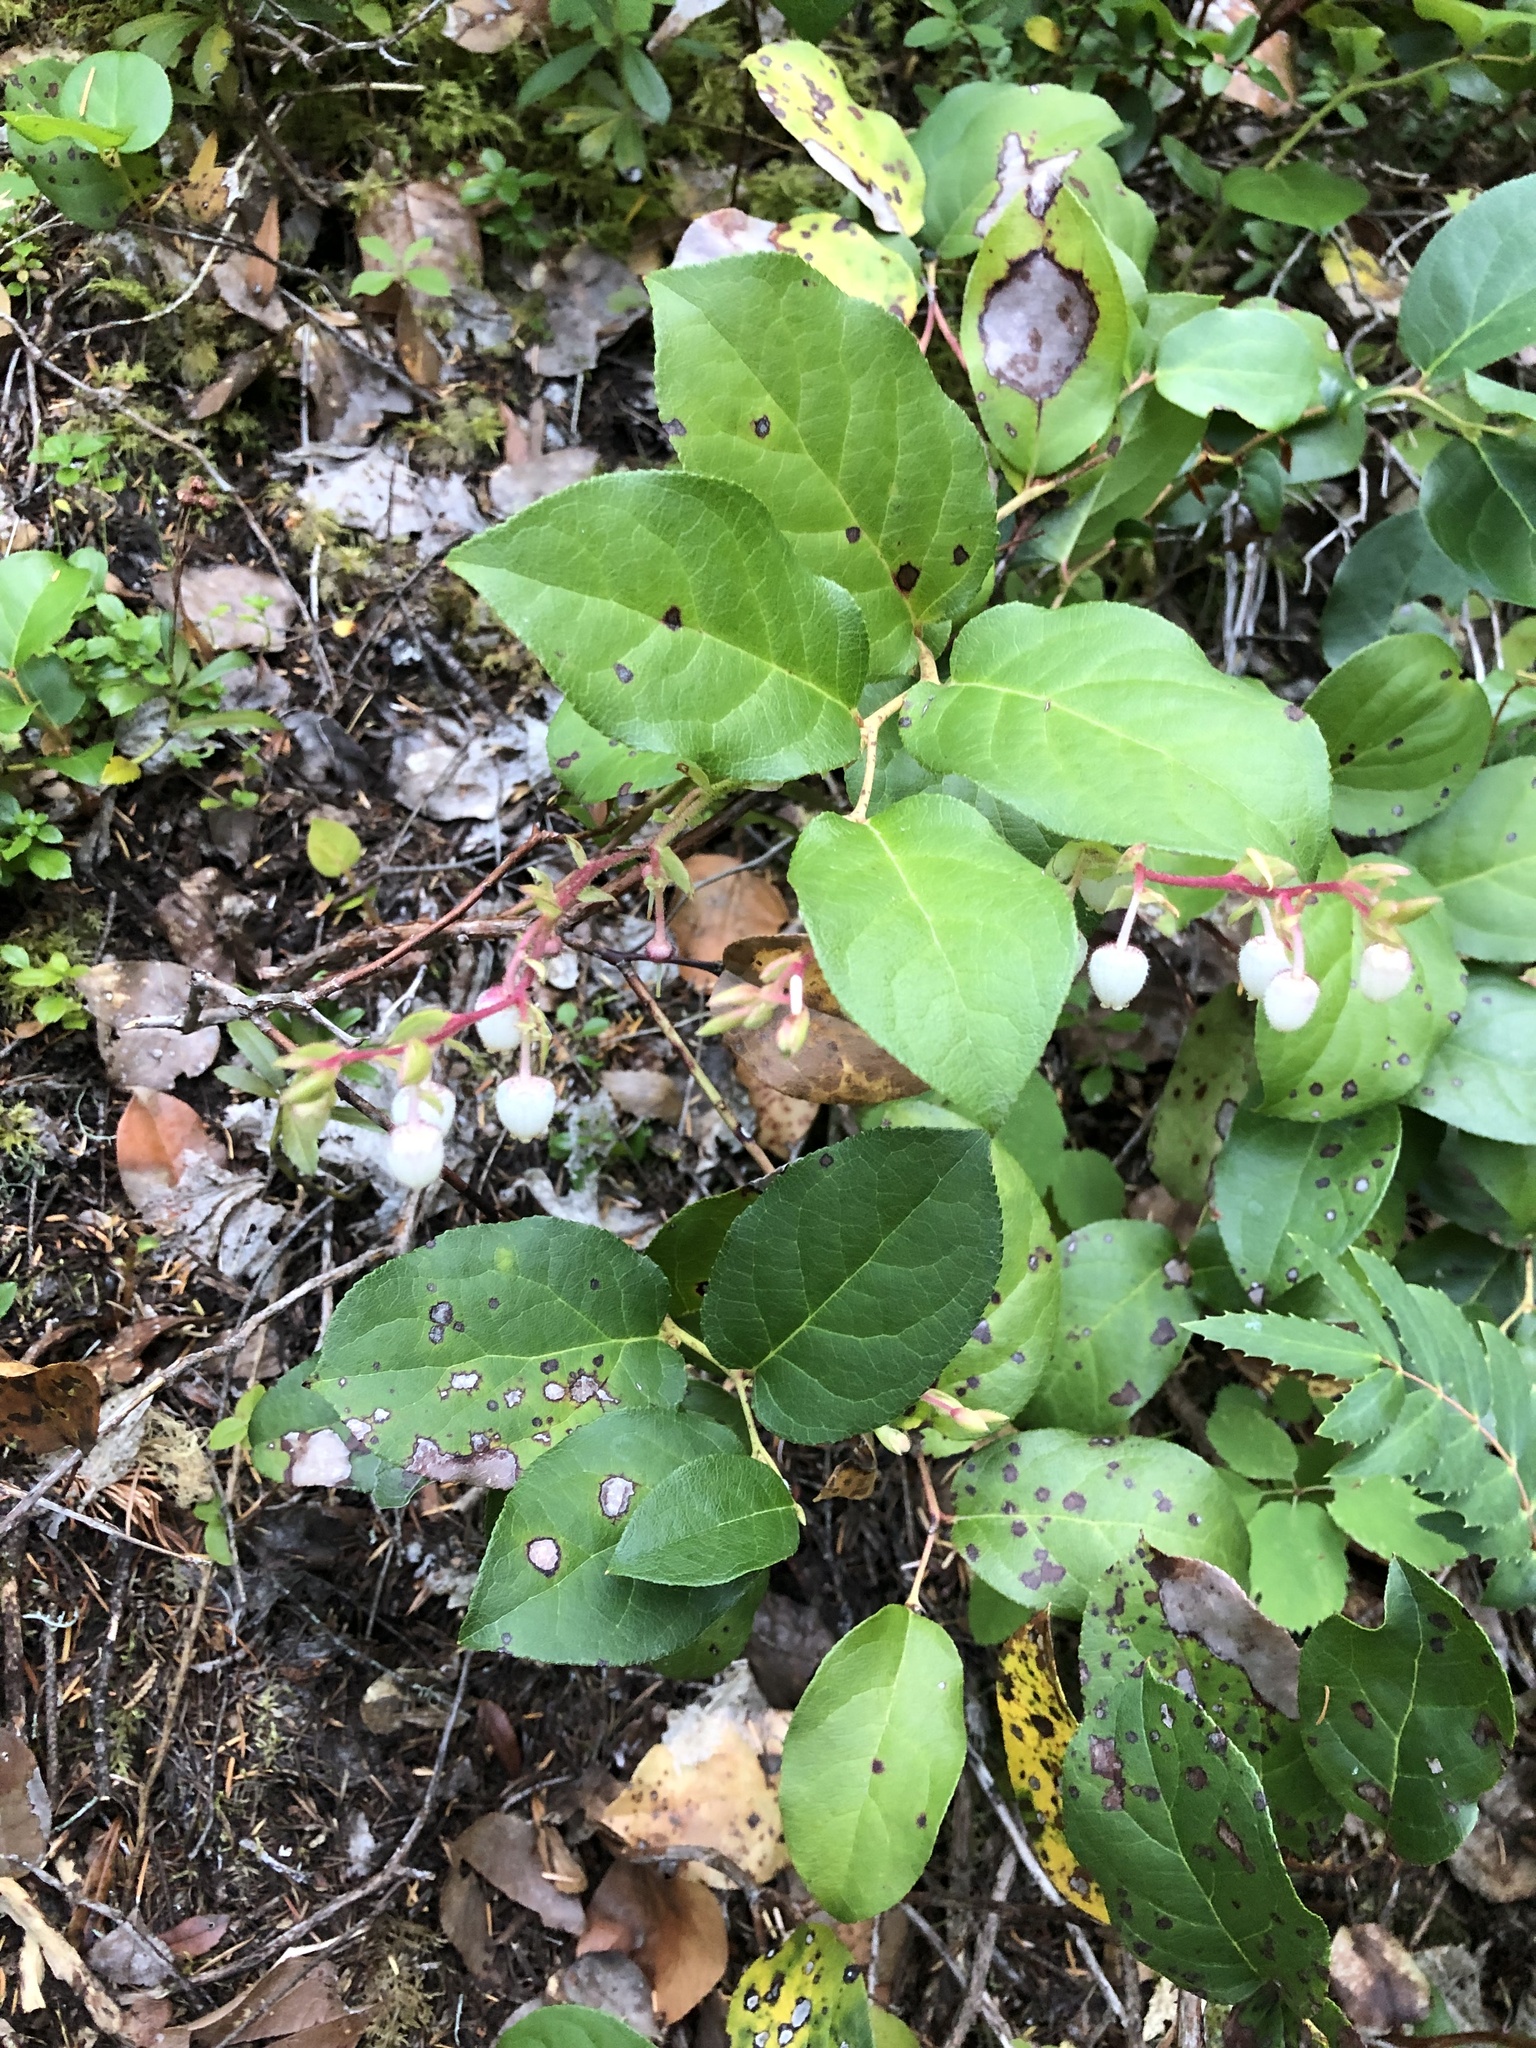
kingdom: Plantae
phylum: Tracheophyta
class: Magnoliopsida
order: Ericales
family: Ericaceae
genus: Gaultheria
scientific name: Gaultheria shallon
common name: Shallon
